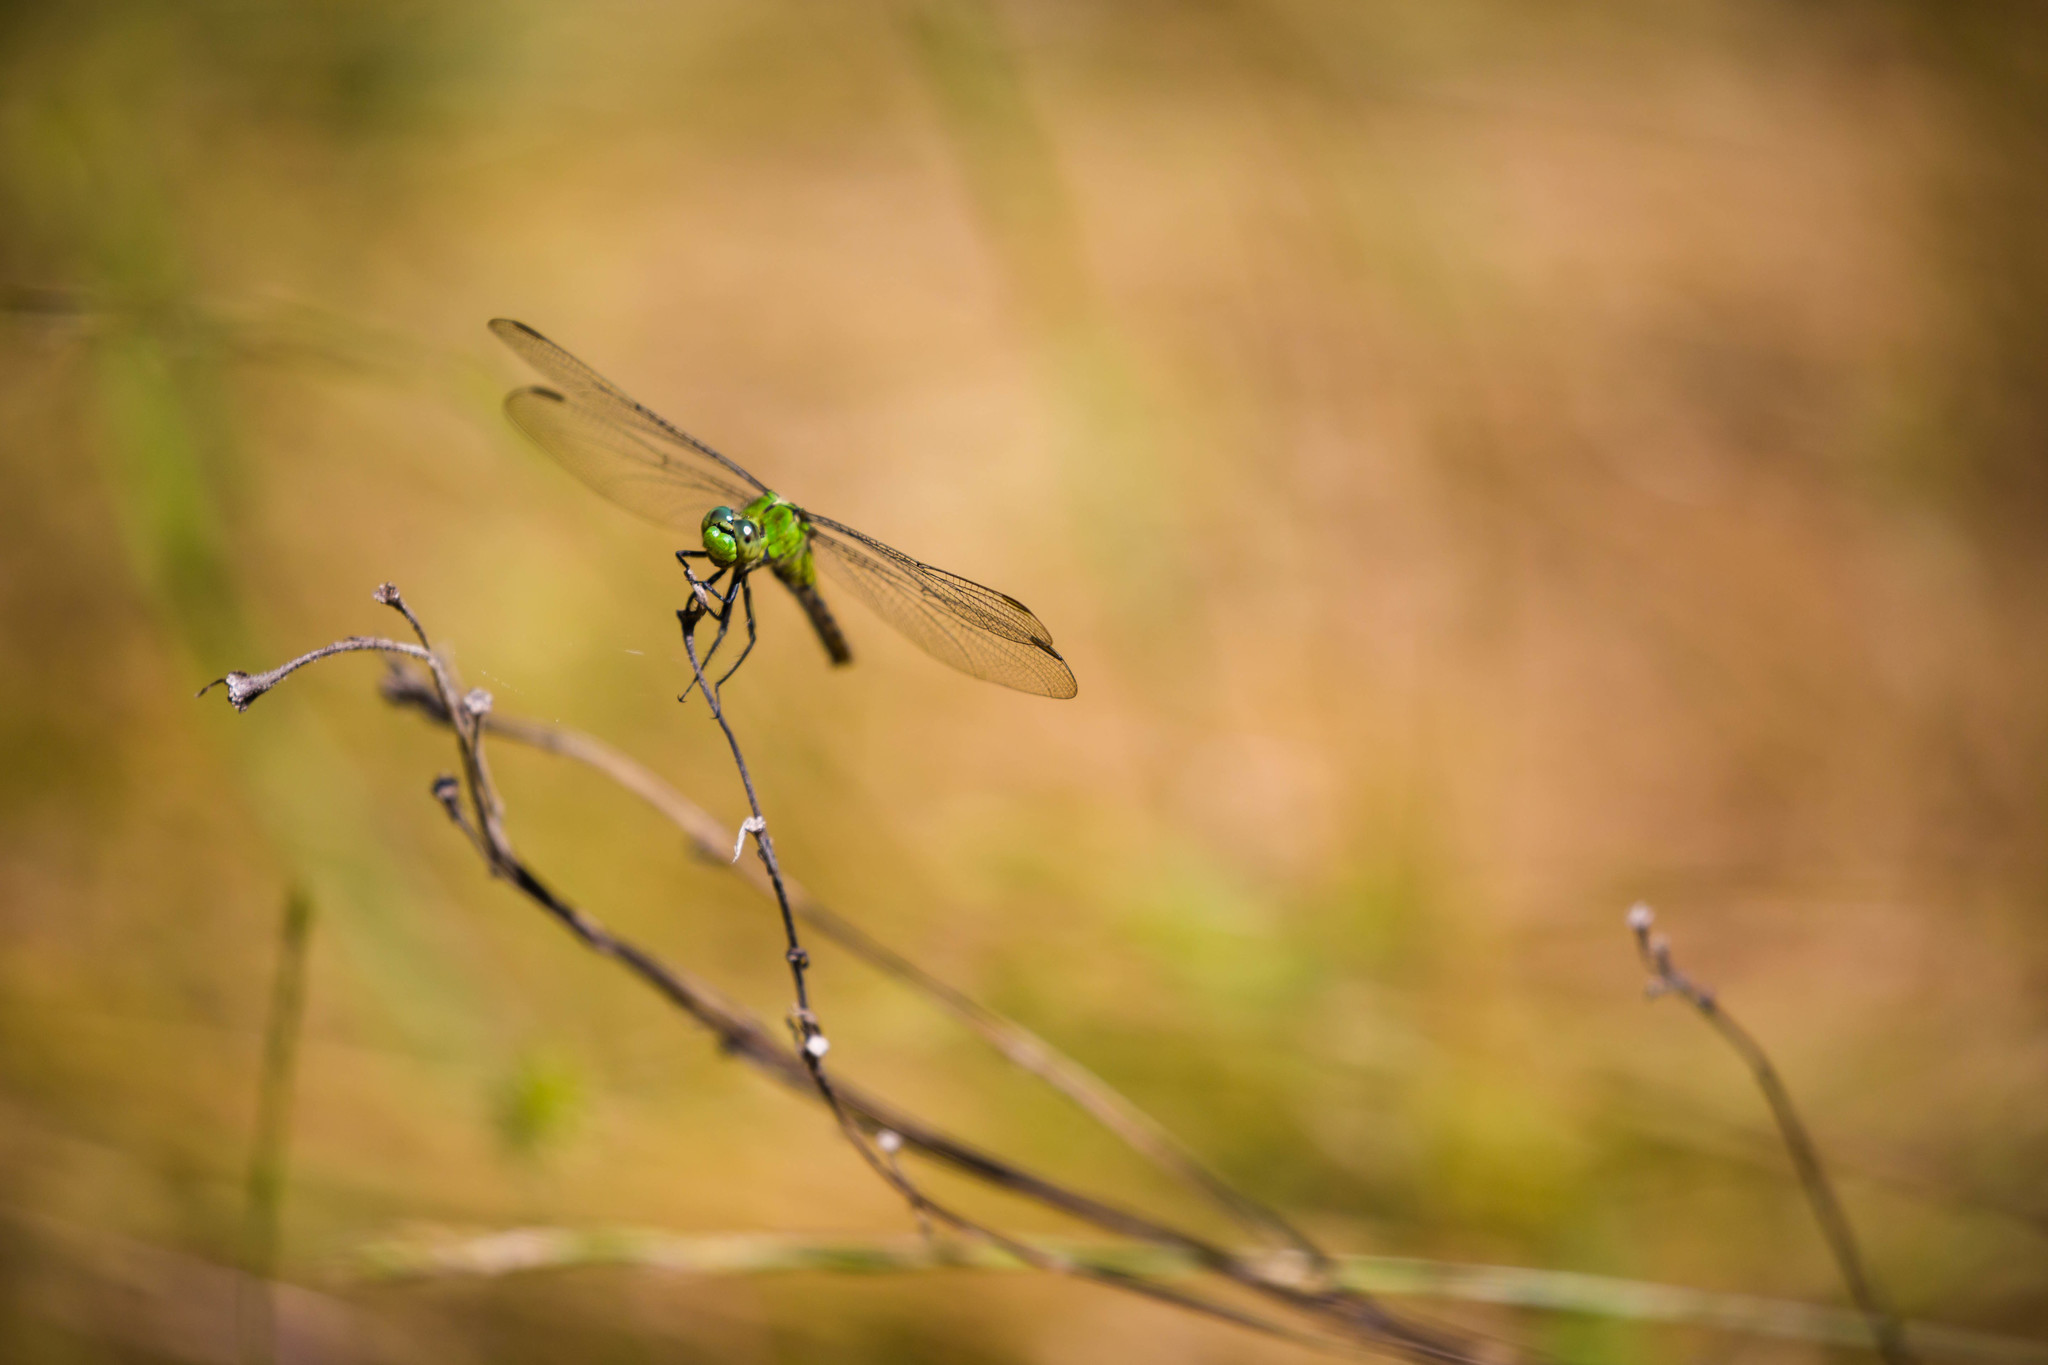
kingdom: Animalia
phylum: Arthropoda
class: Insecta
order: Odonata
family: Libellulidae
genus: Erythemis
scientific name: Erythemis collocata
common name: Western pondhawk
